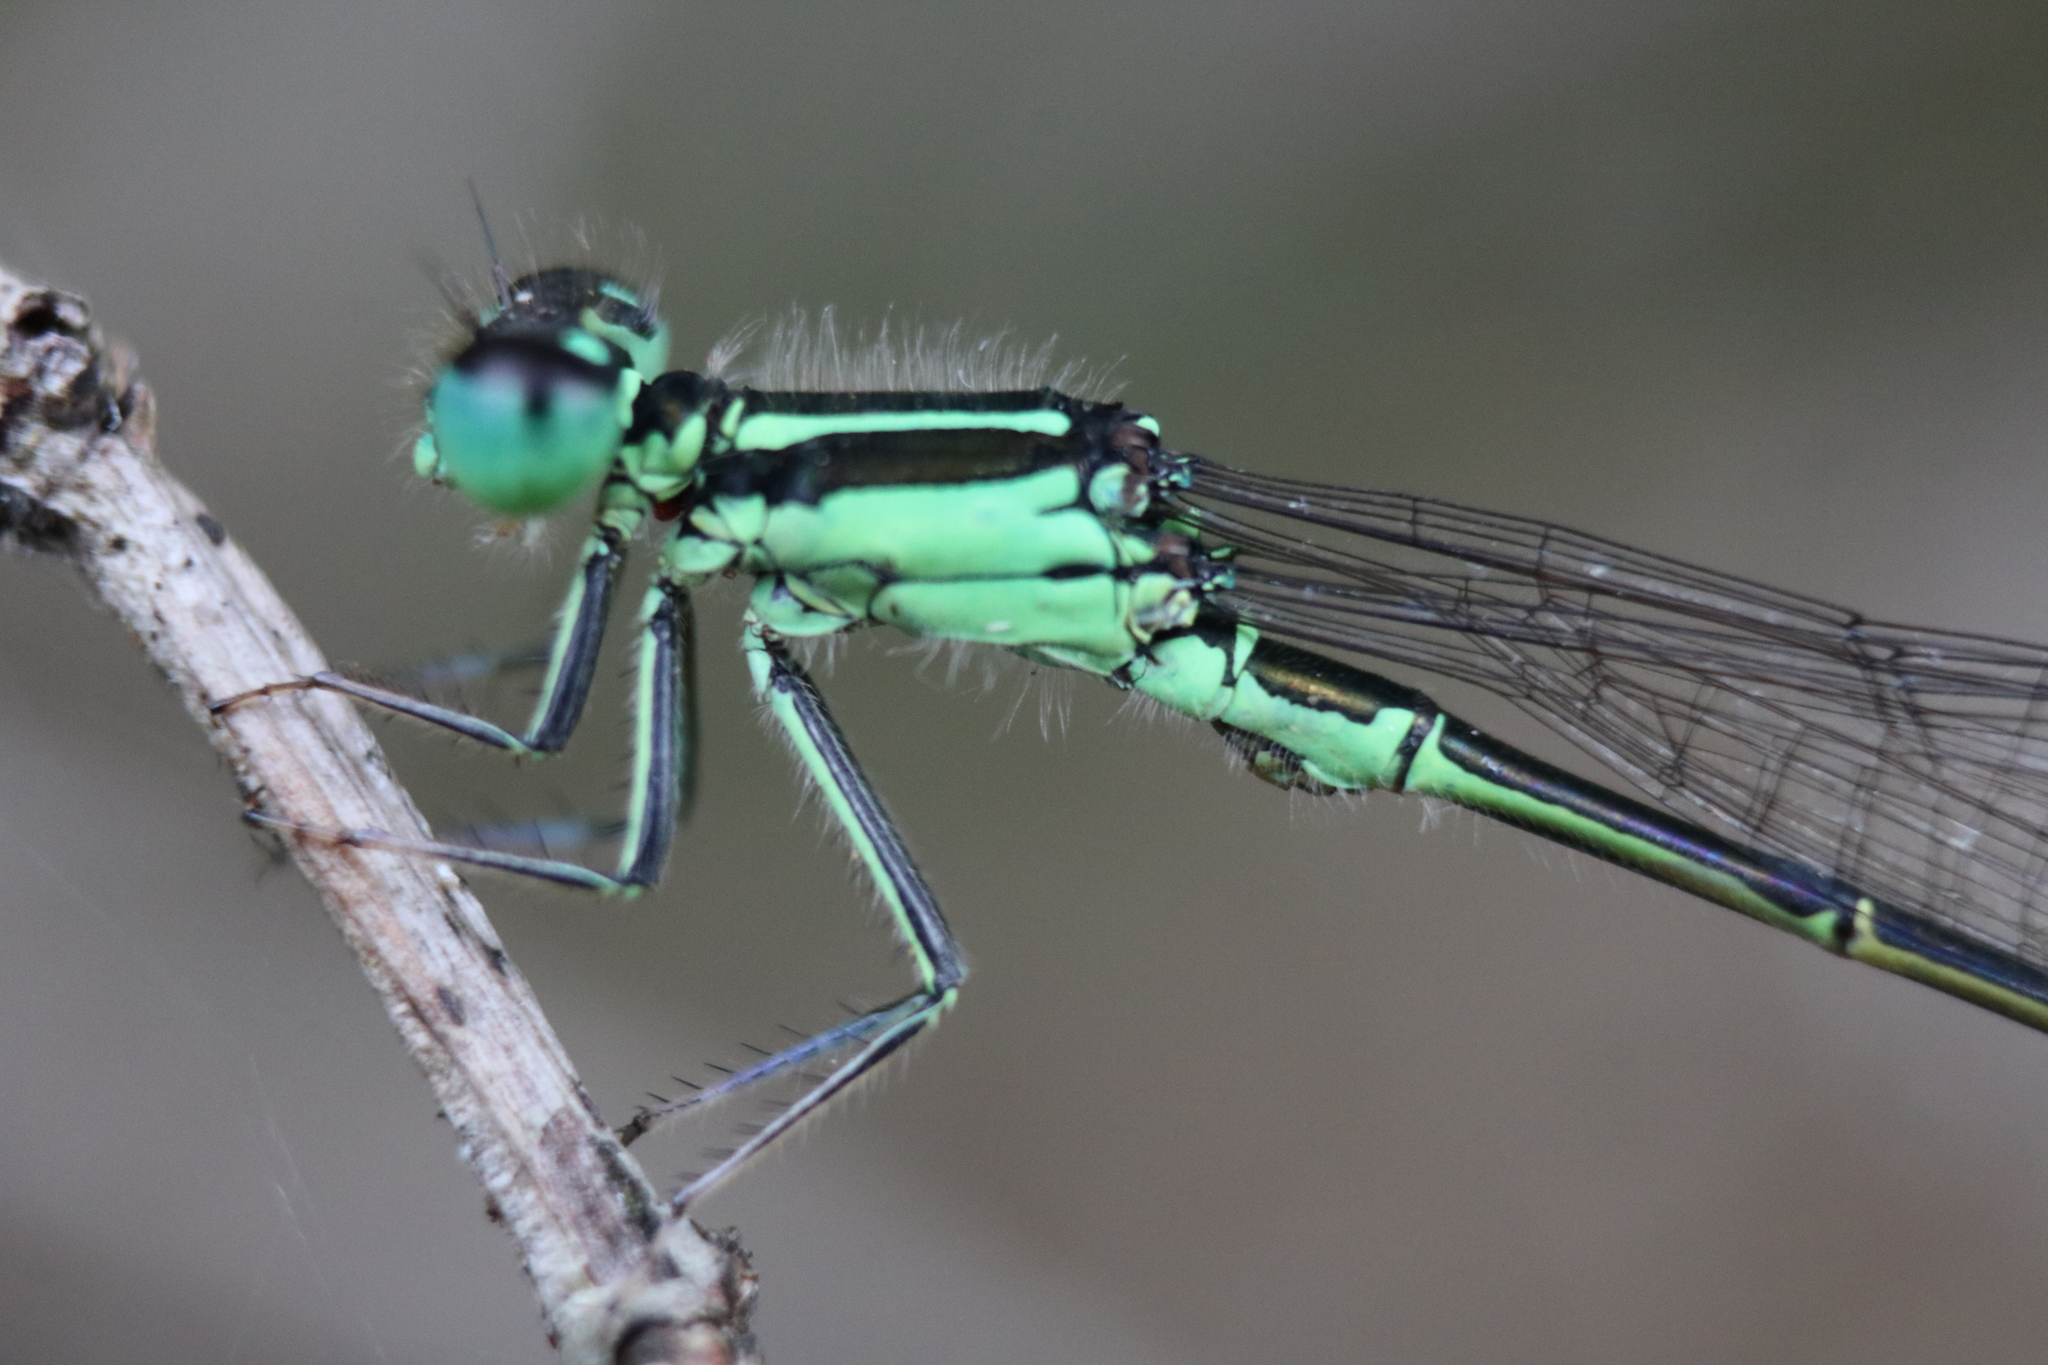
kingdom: Animalia
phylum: Arthropoda
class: Insecta
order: Odonata
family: Coenagrionidae
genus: Ischnura
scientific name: Ischnura verticalis
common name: Eastern forktail
